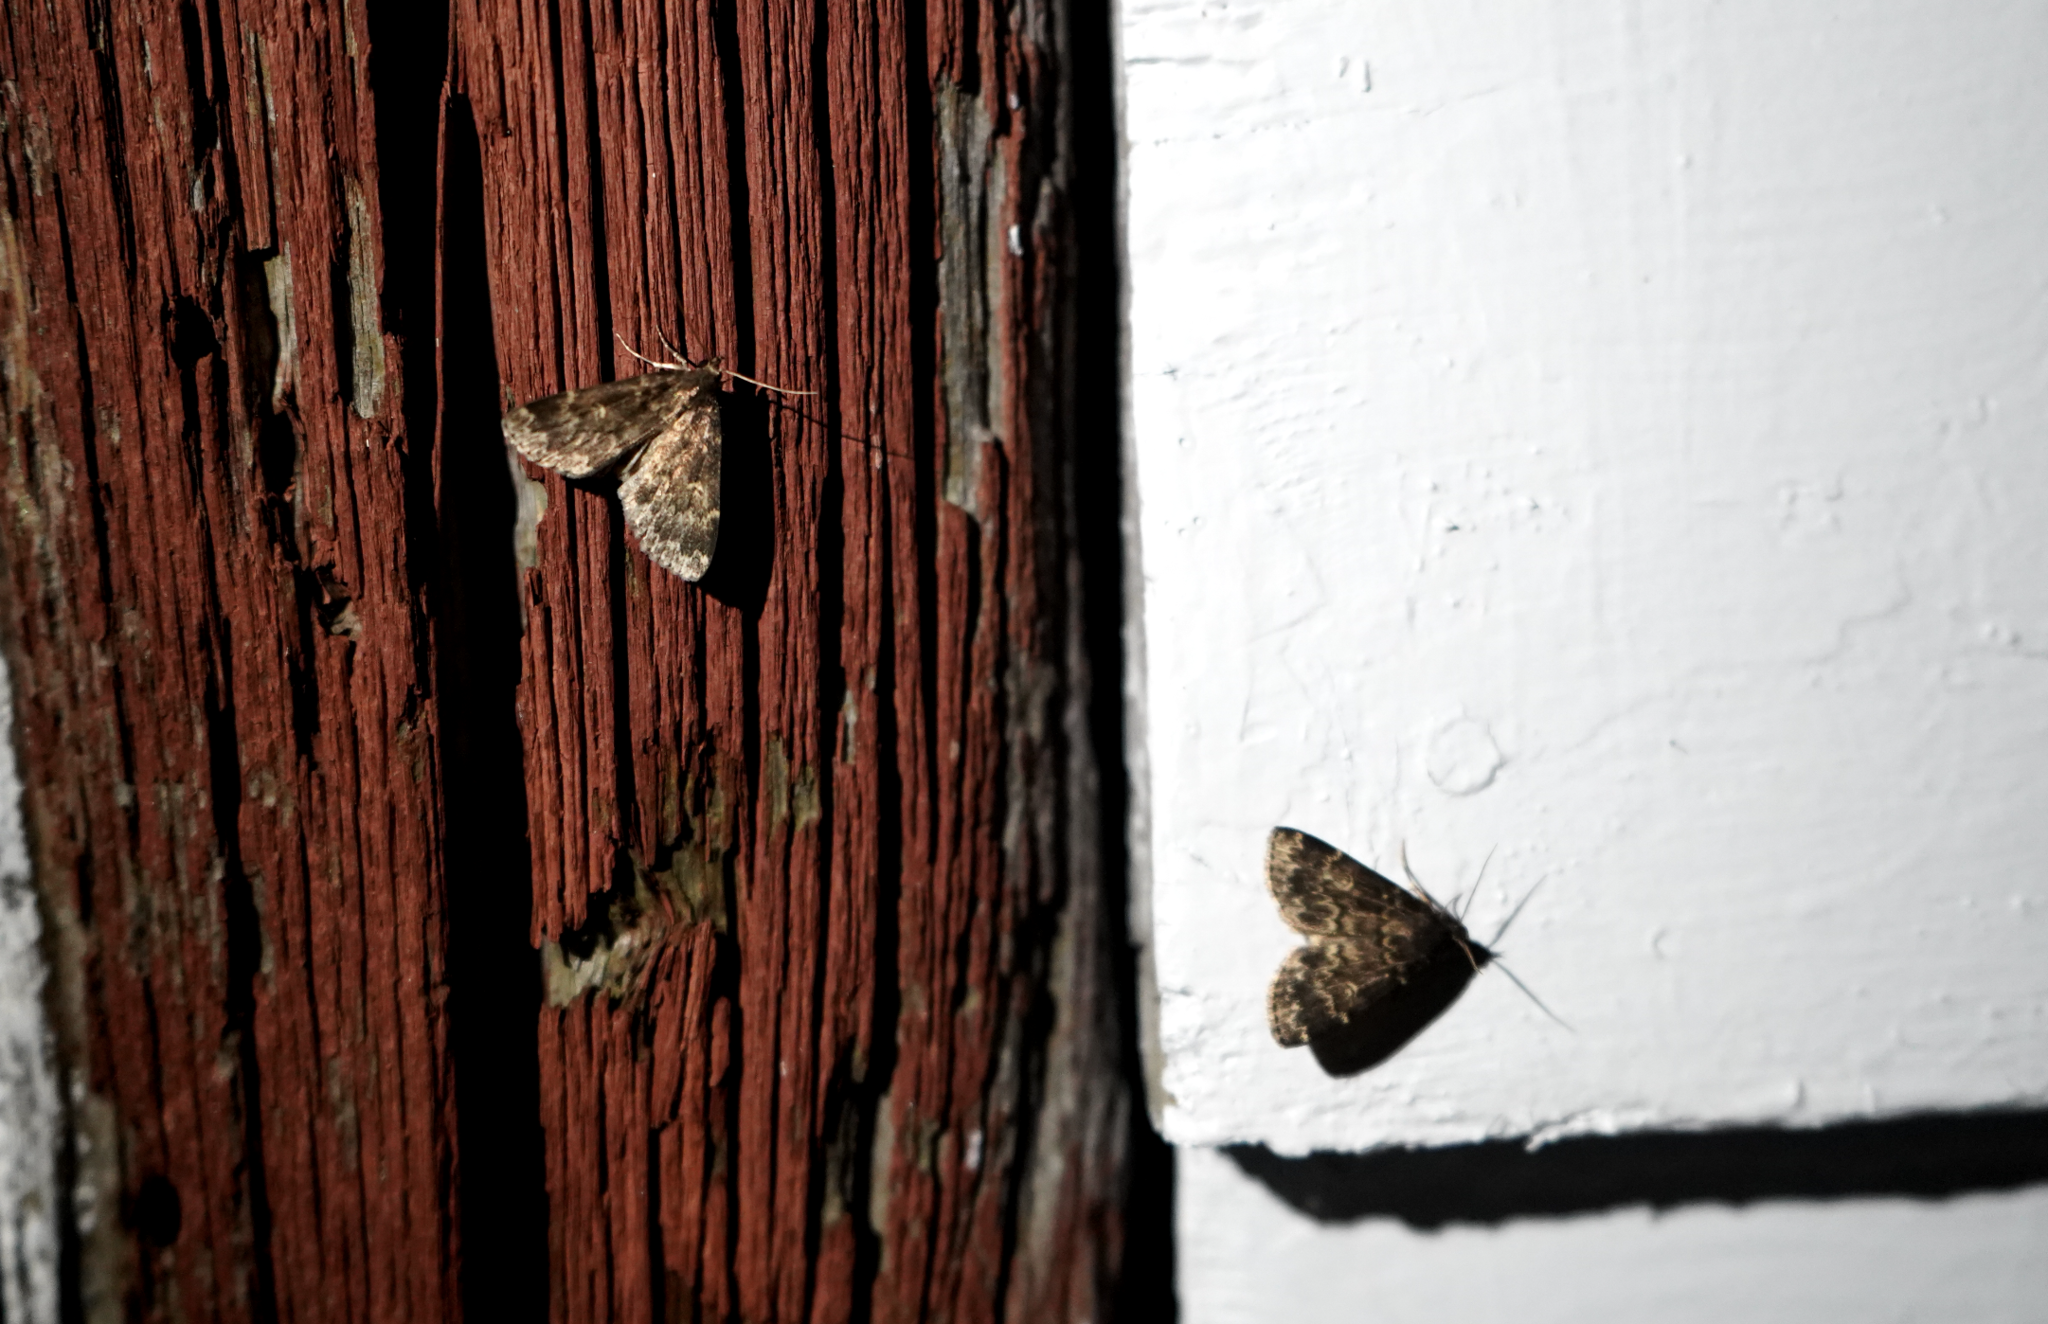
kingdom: Animalia
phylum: Arthropoda
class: Insecta
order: Lepidoptera
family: Erebidae
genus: Idia
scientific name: Idia lubricalis
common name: Twin-striped tabby
